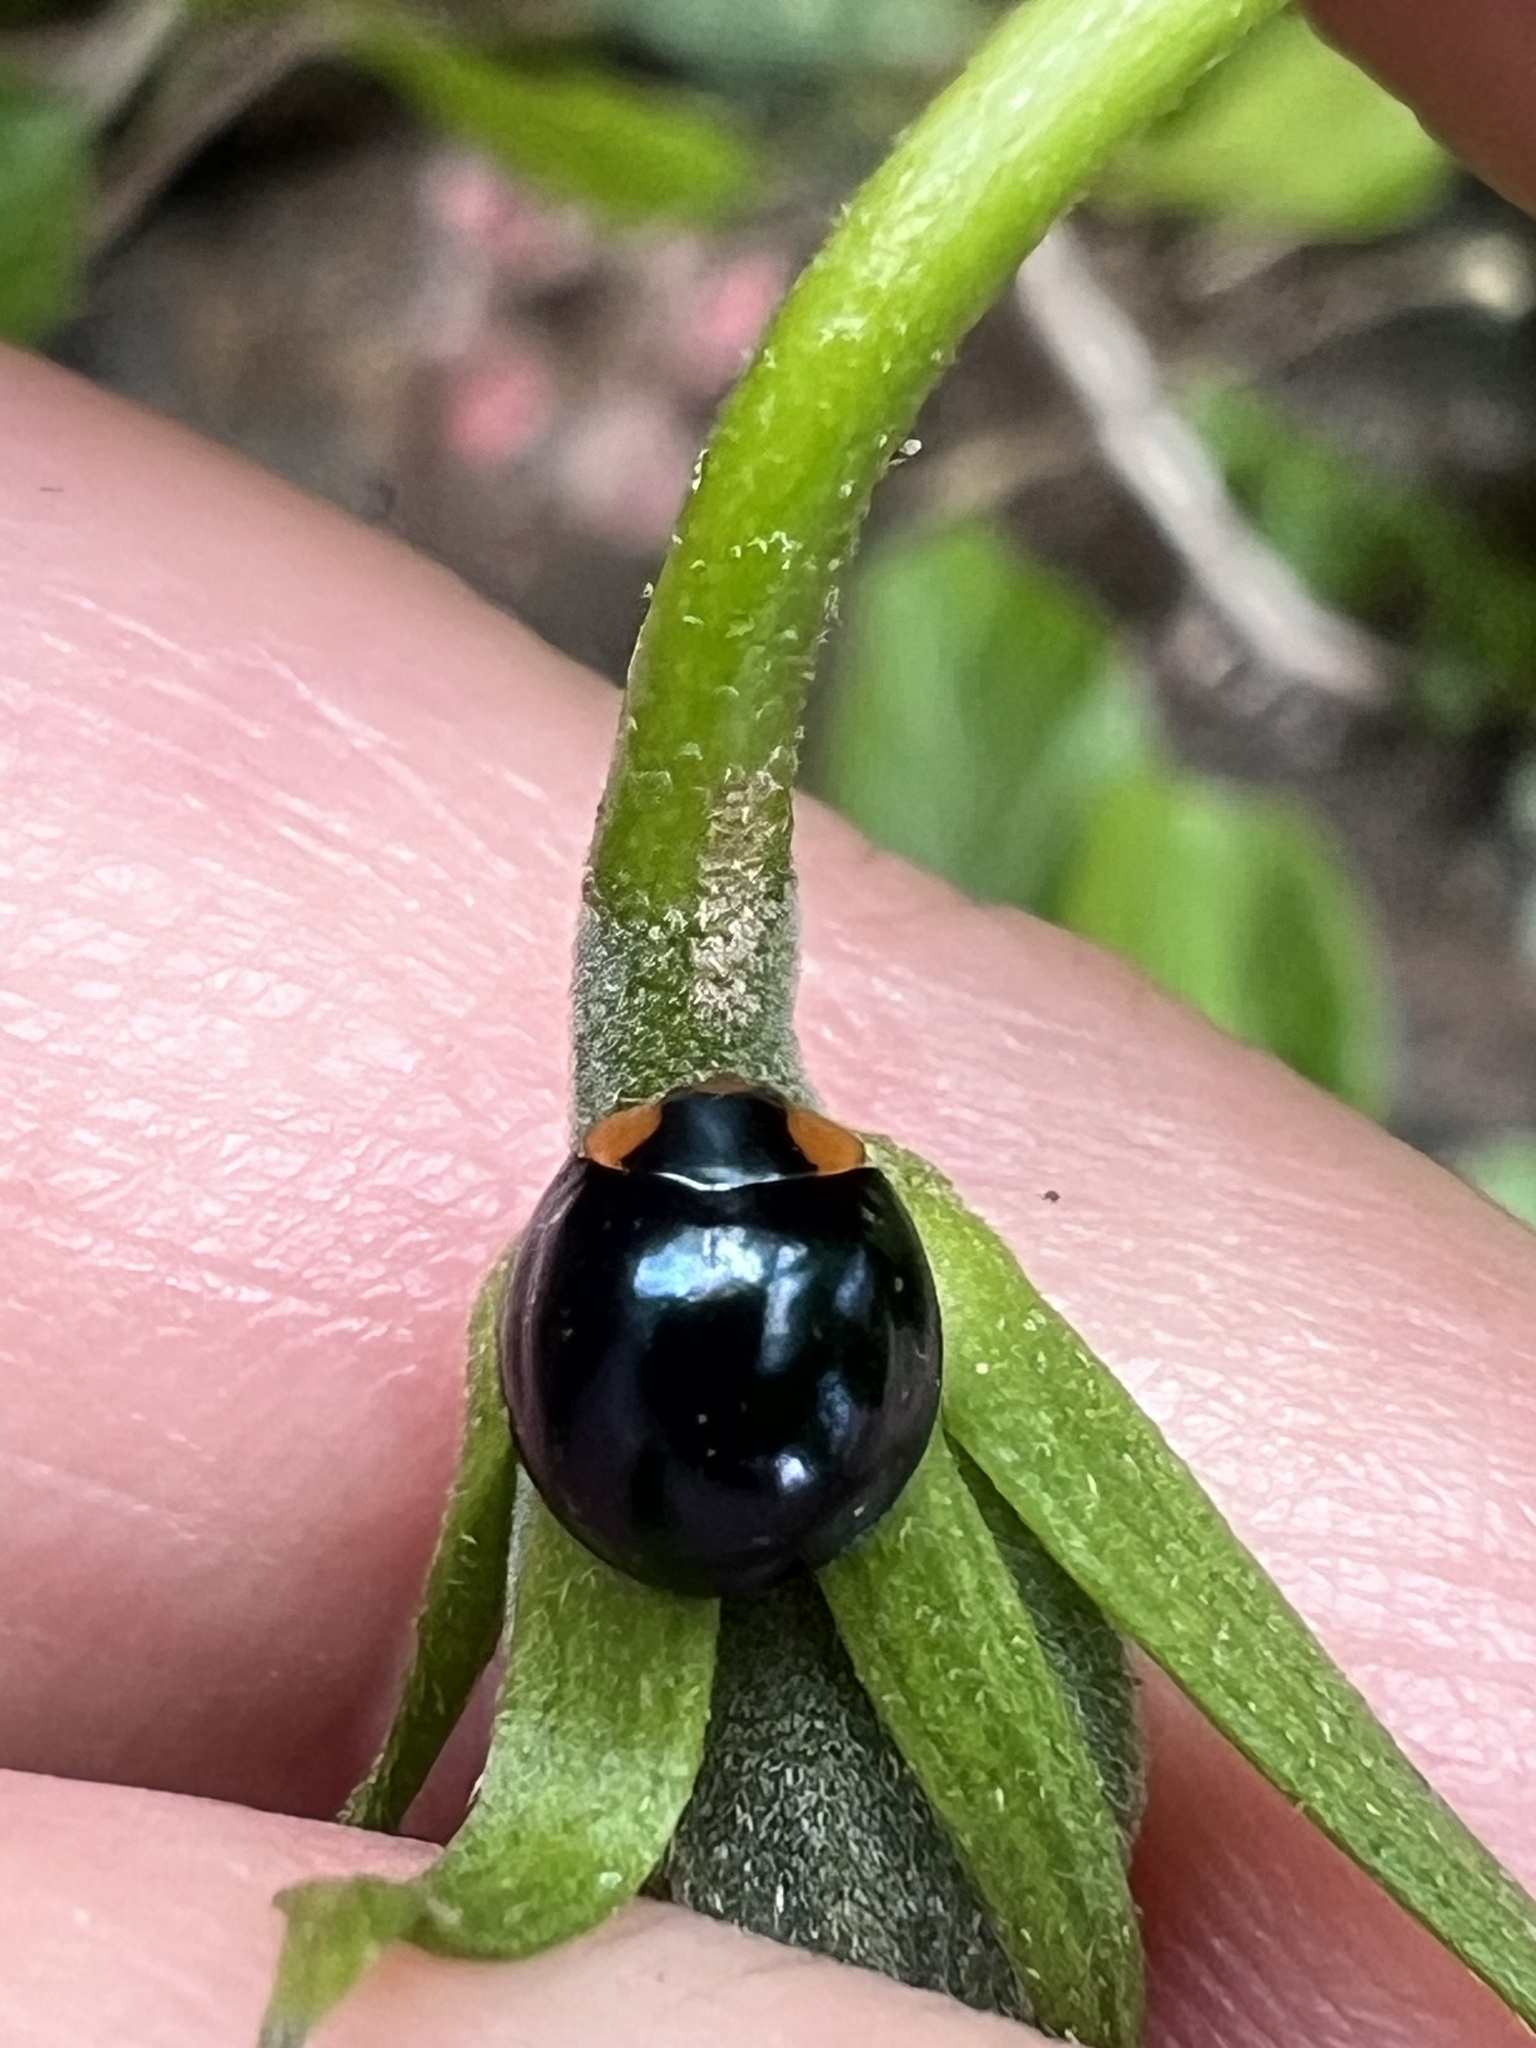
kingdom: Animalia
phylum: Arthropoda
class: Insecta
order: Coleoptera
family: Coccinellidae
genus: Curinus
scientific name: Curinus coeruleus
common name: Ladybird beetle
